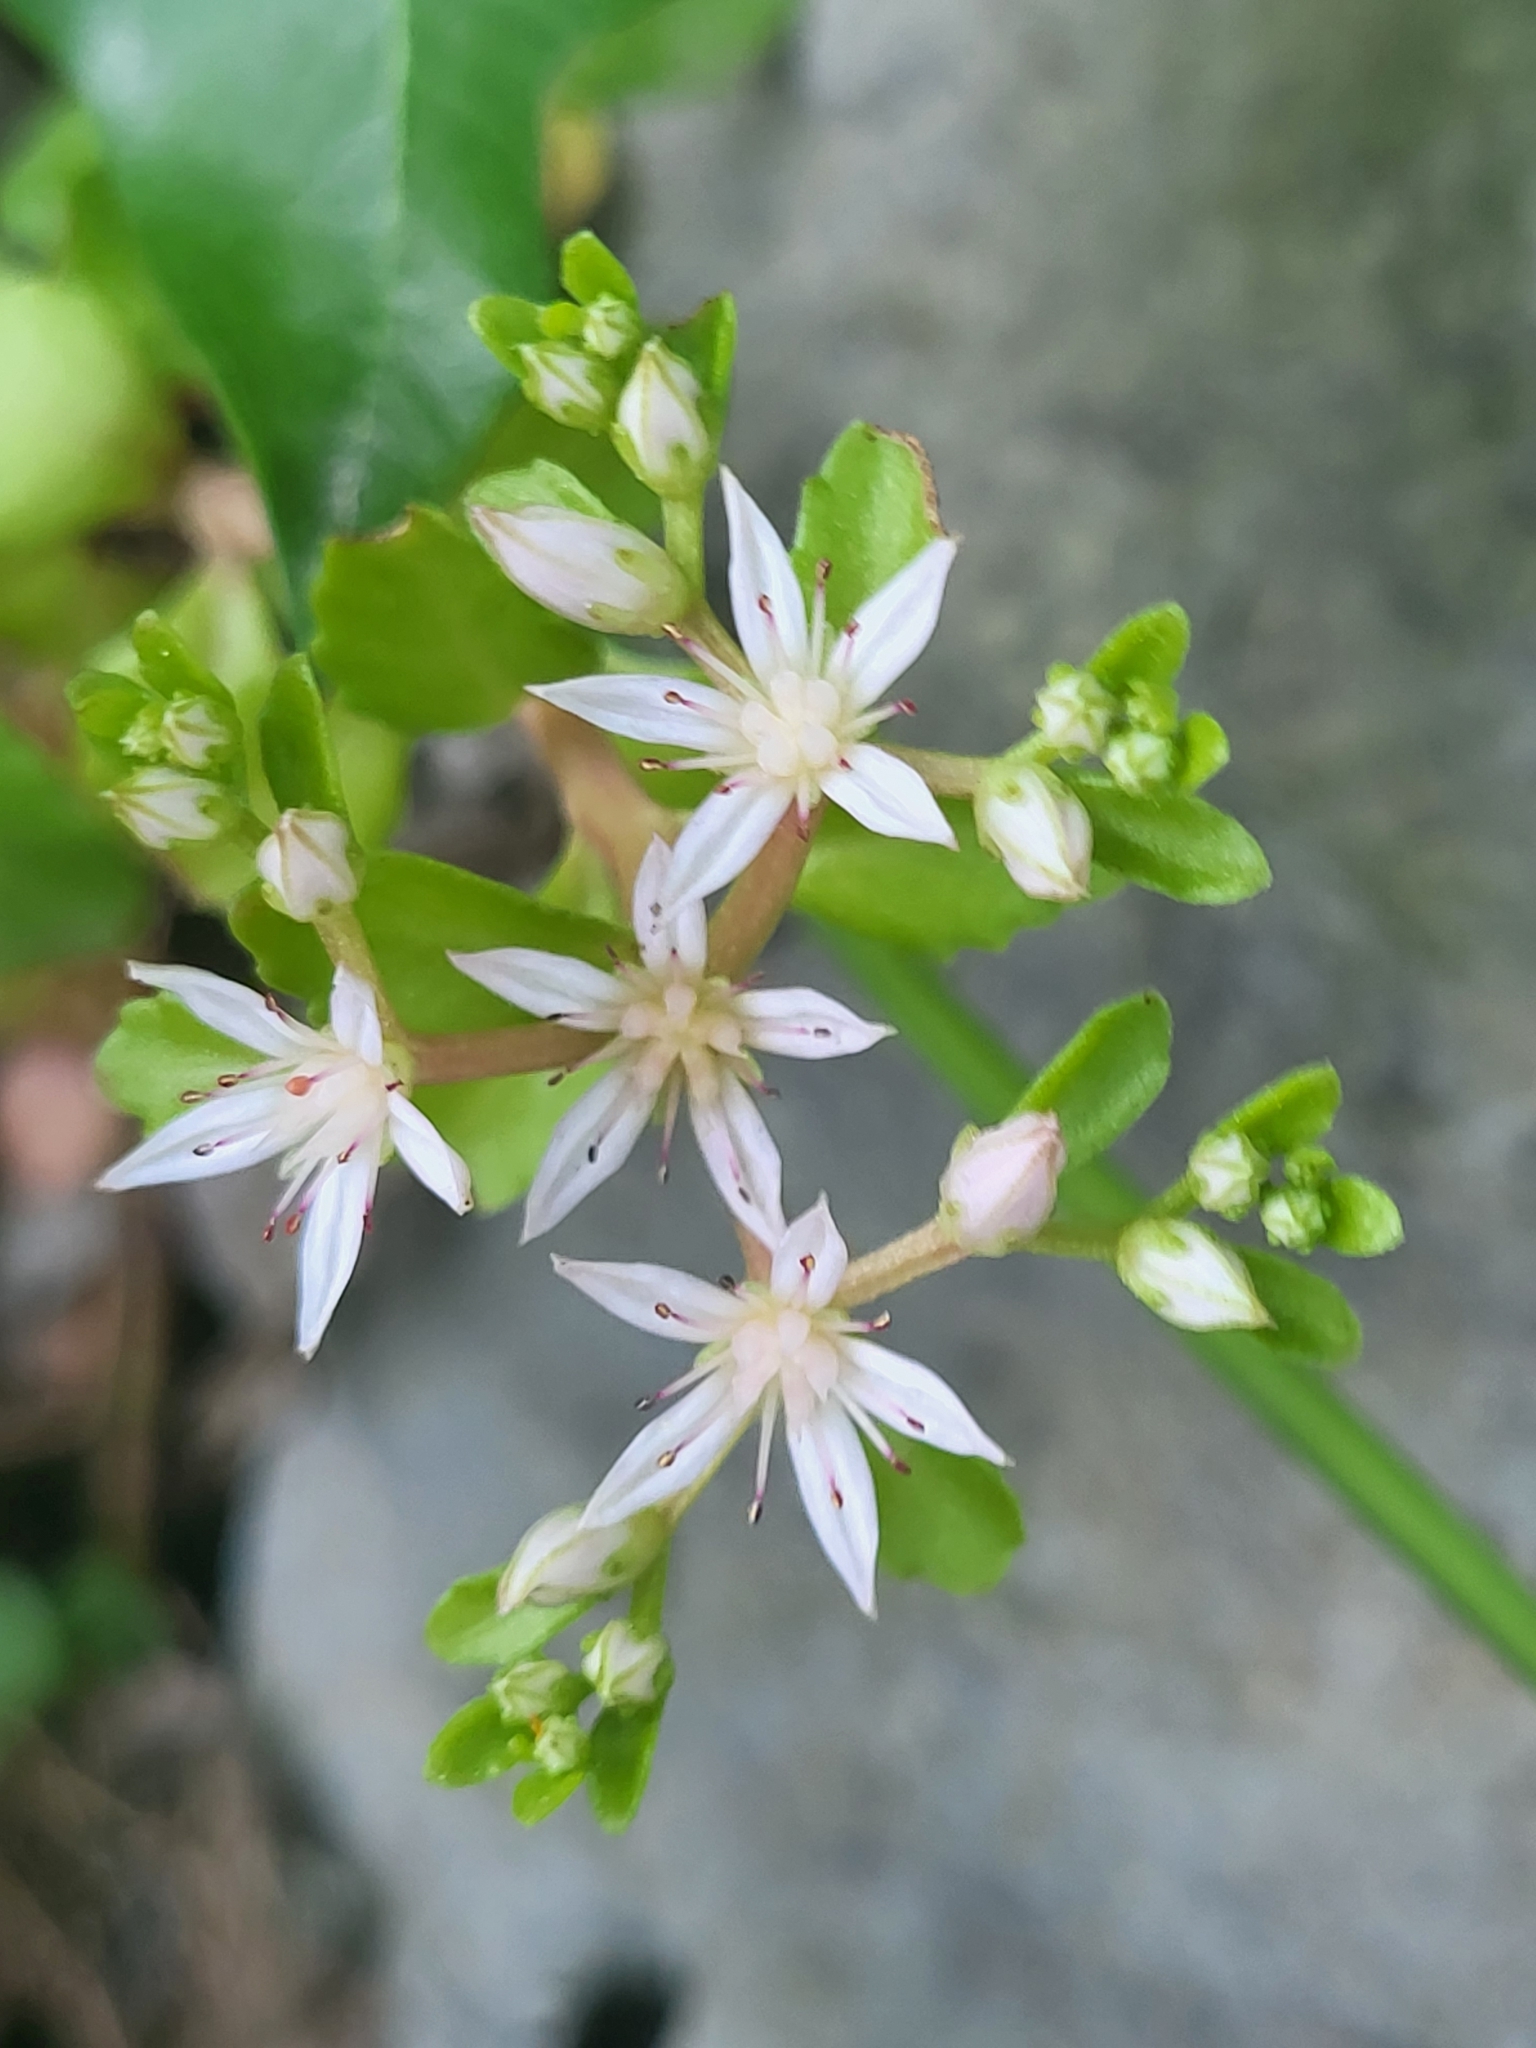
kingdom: Plantae
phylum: Tracheophyta
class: Magnoliopsida
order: Saxifragales
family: Crassulaceae
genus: Phedimus
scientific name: Phedimus stolonifer
